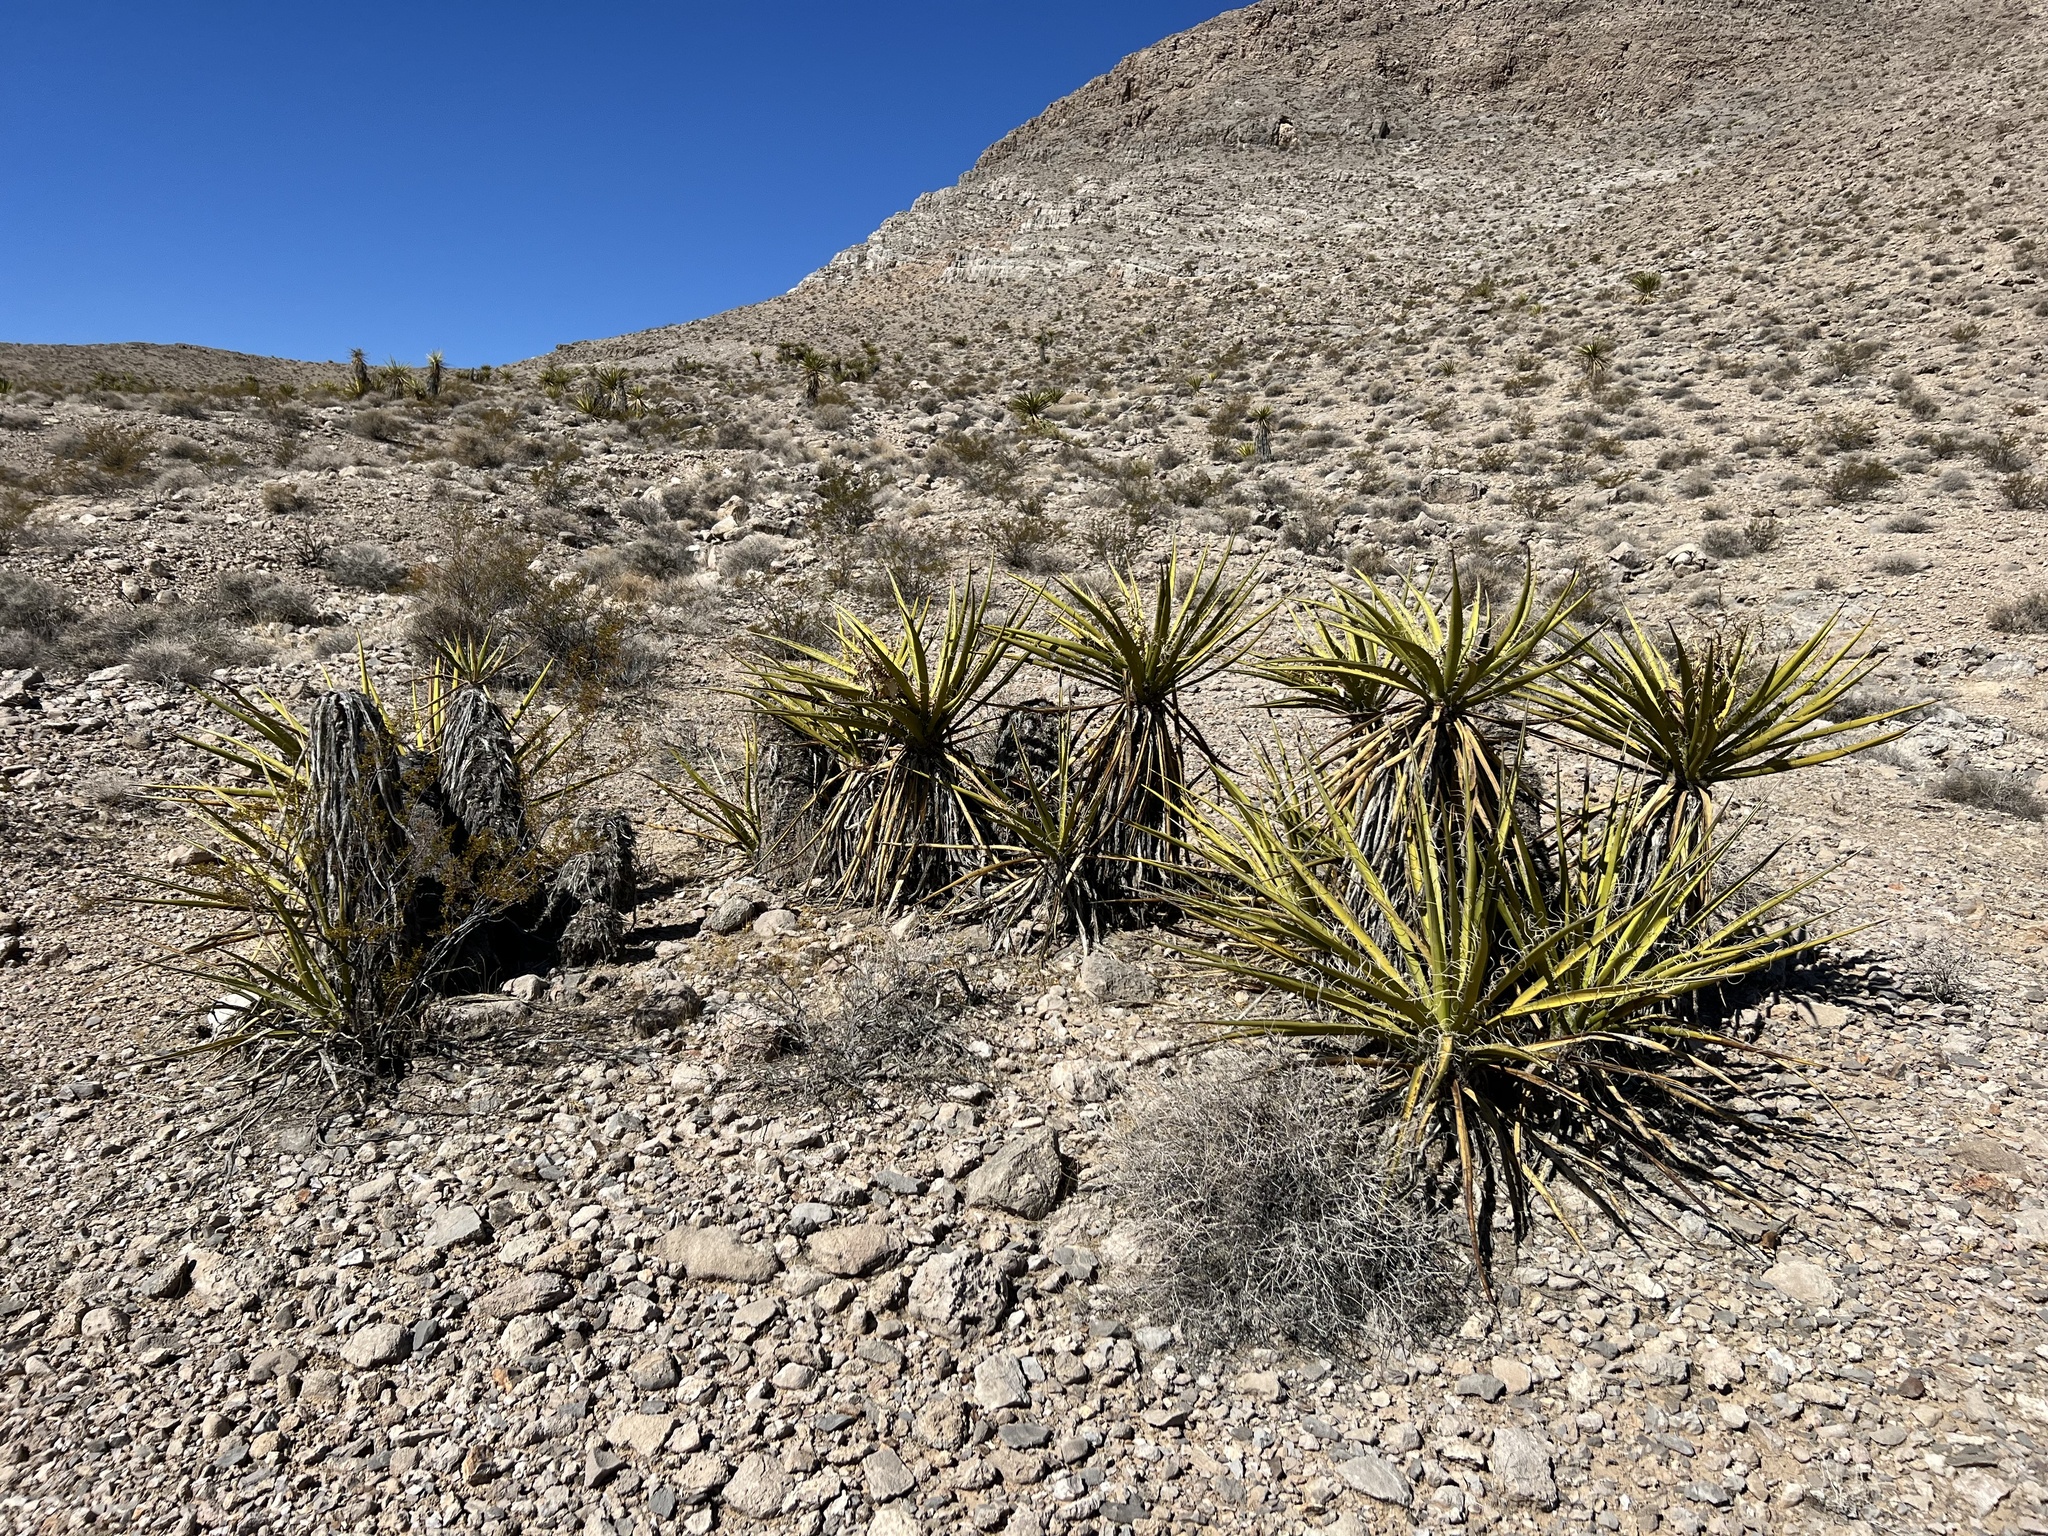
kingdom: Plantae
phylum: Tracheophyta
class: Liliopsida
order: Asparagales
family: Asparagaceae
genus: Yucca
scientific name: Yucca schidigera
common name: Mojave yucca
